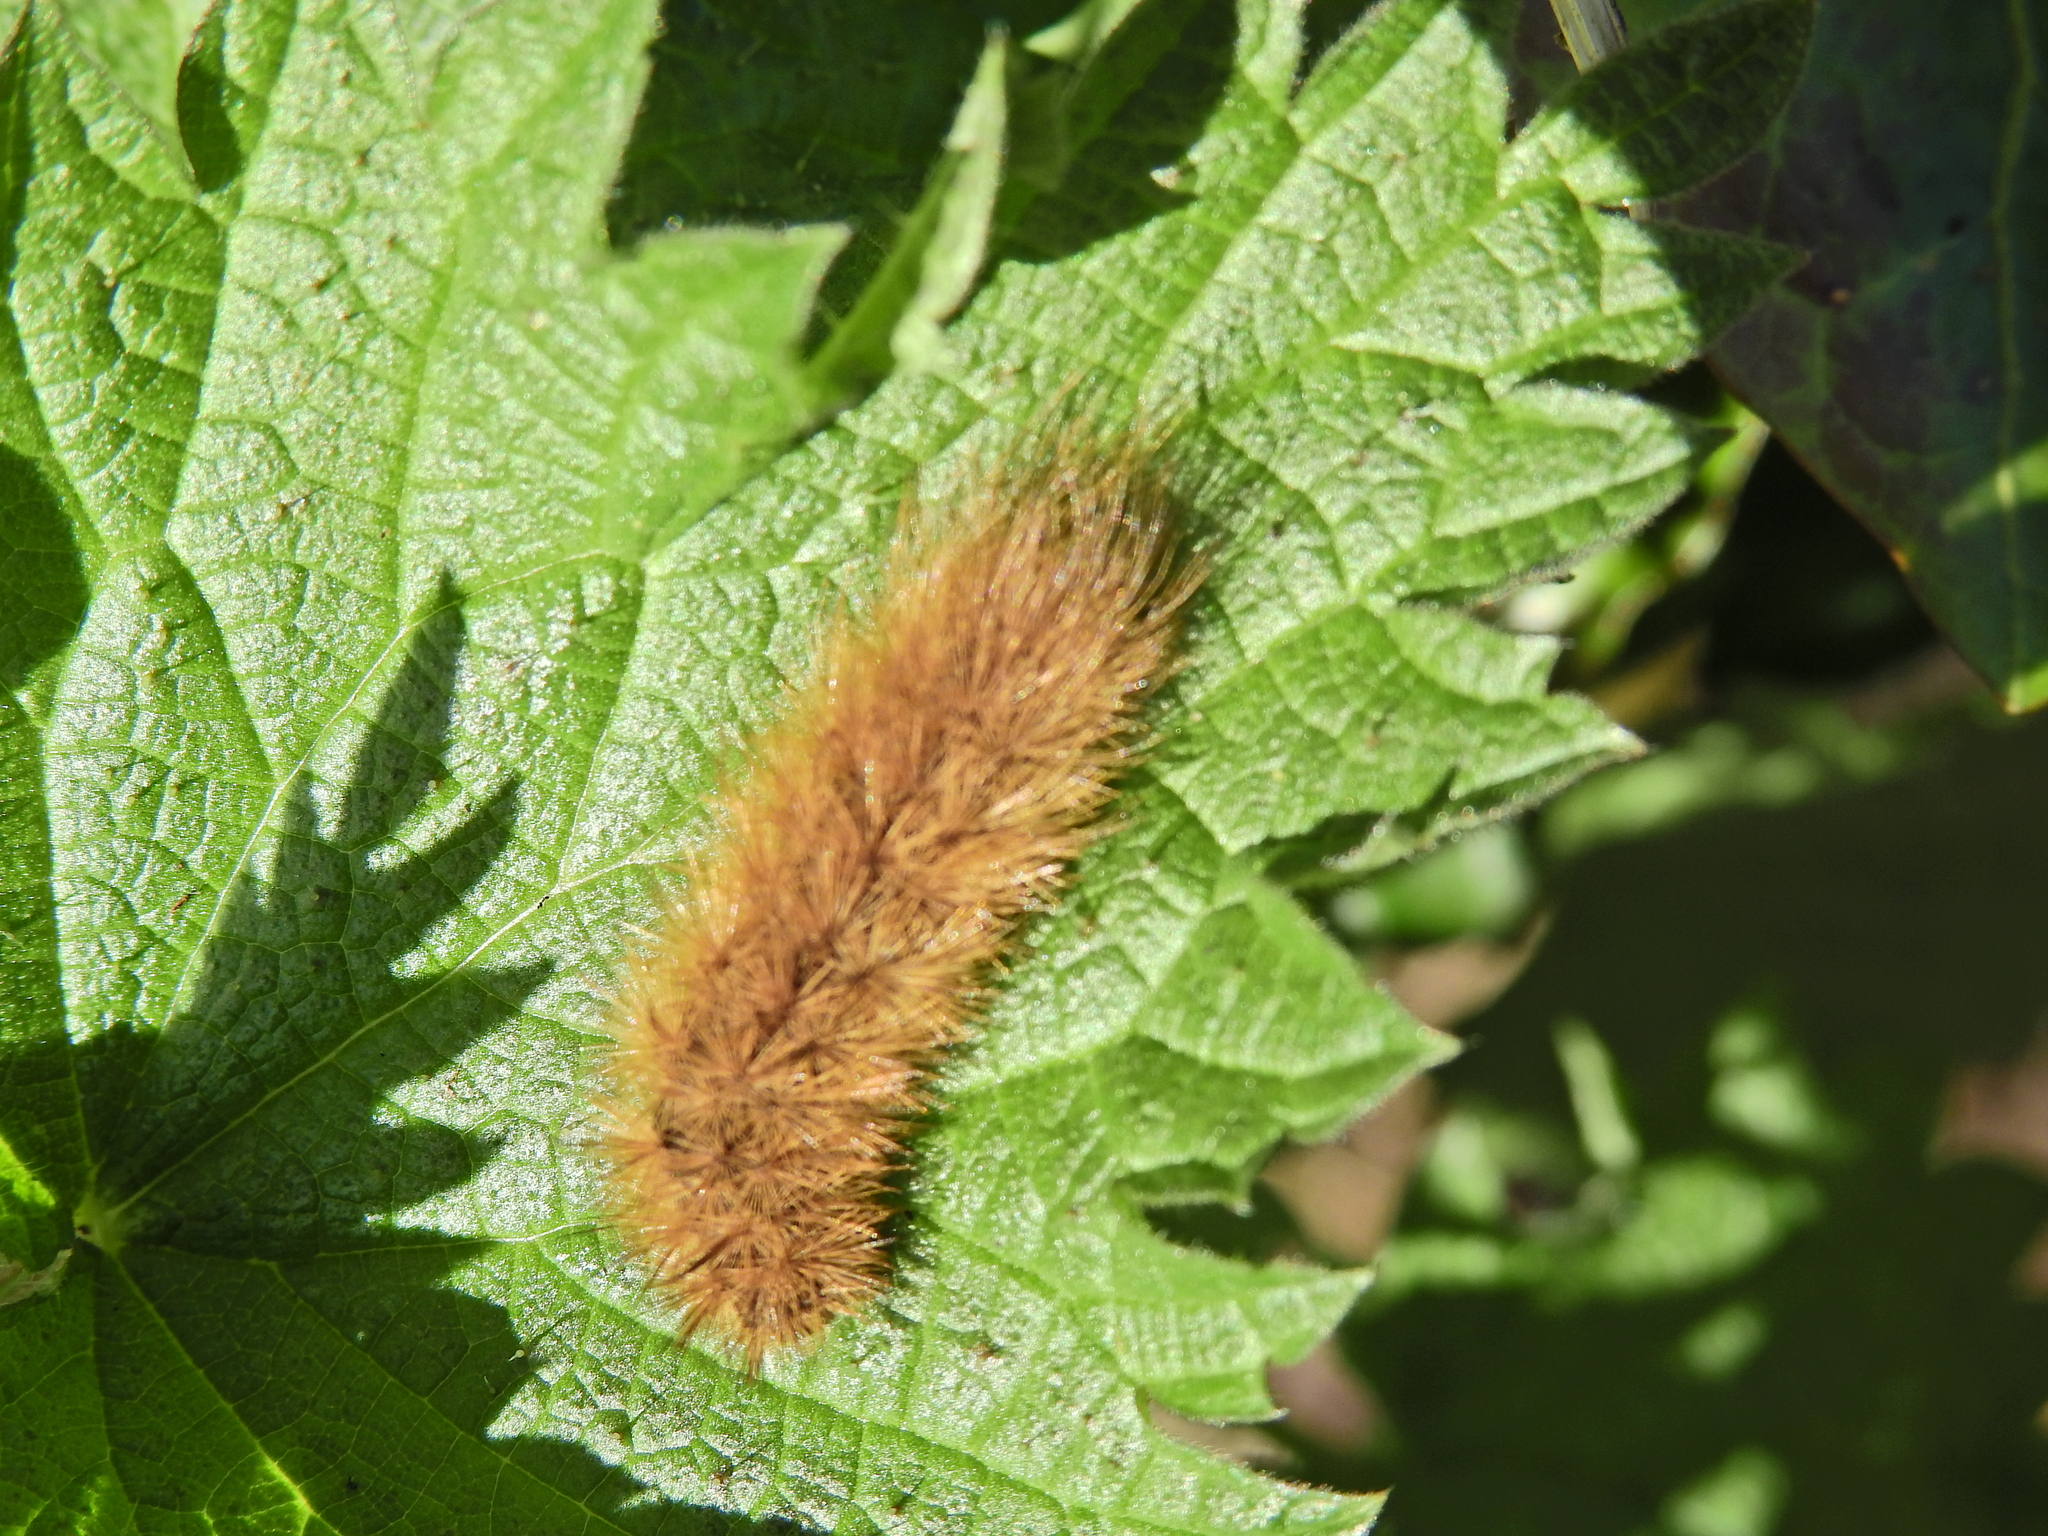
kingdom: Animalia
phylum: Arthropoda
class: Insecta
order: Lepidoptera
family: Erebidae
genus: Phragmatobia
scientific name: Phragmatobia fuliginosa
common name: Ruby tiger
